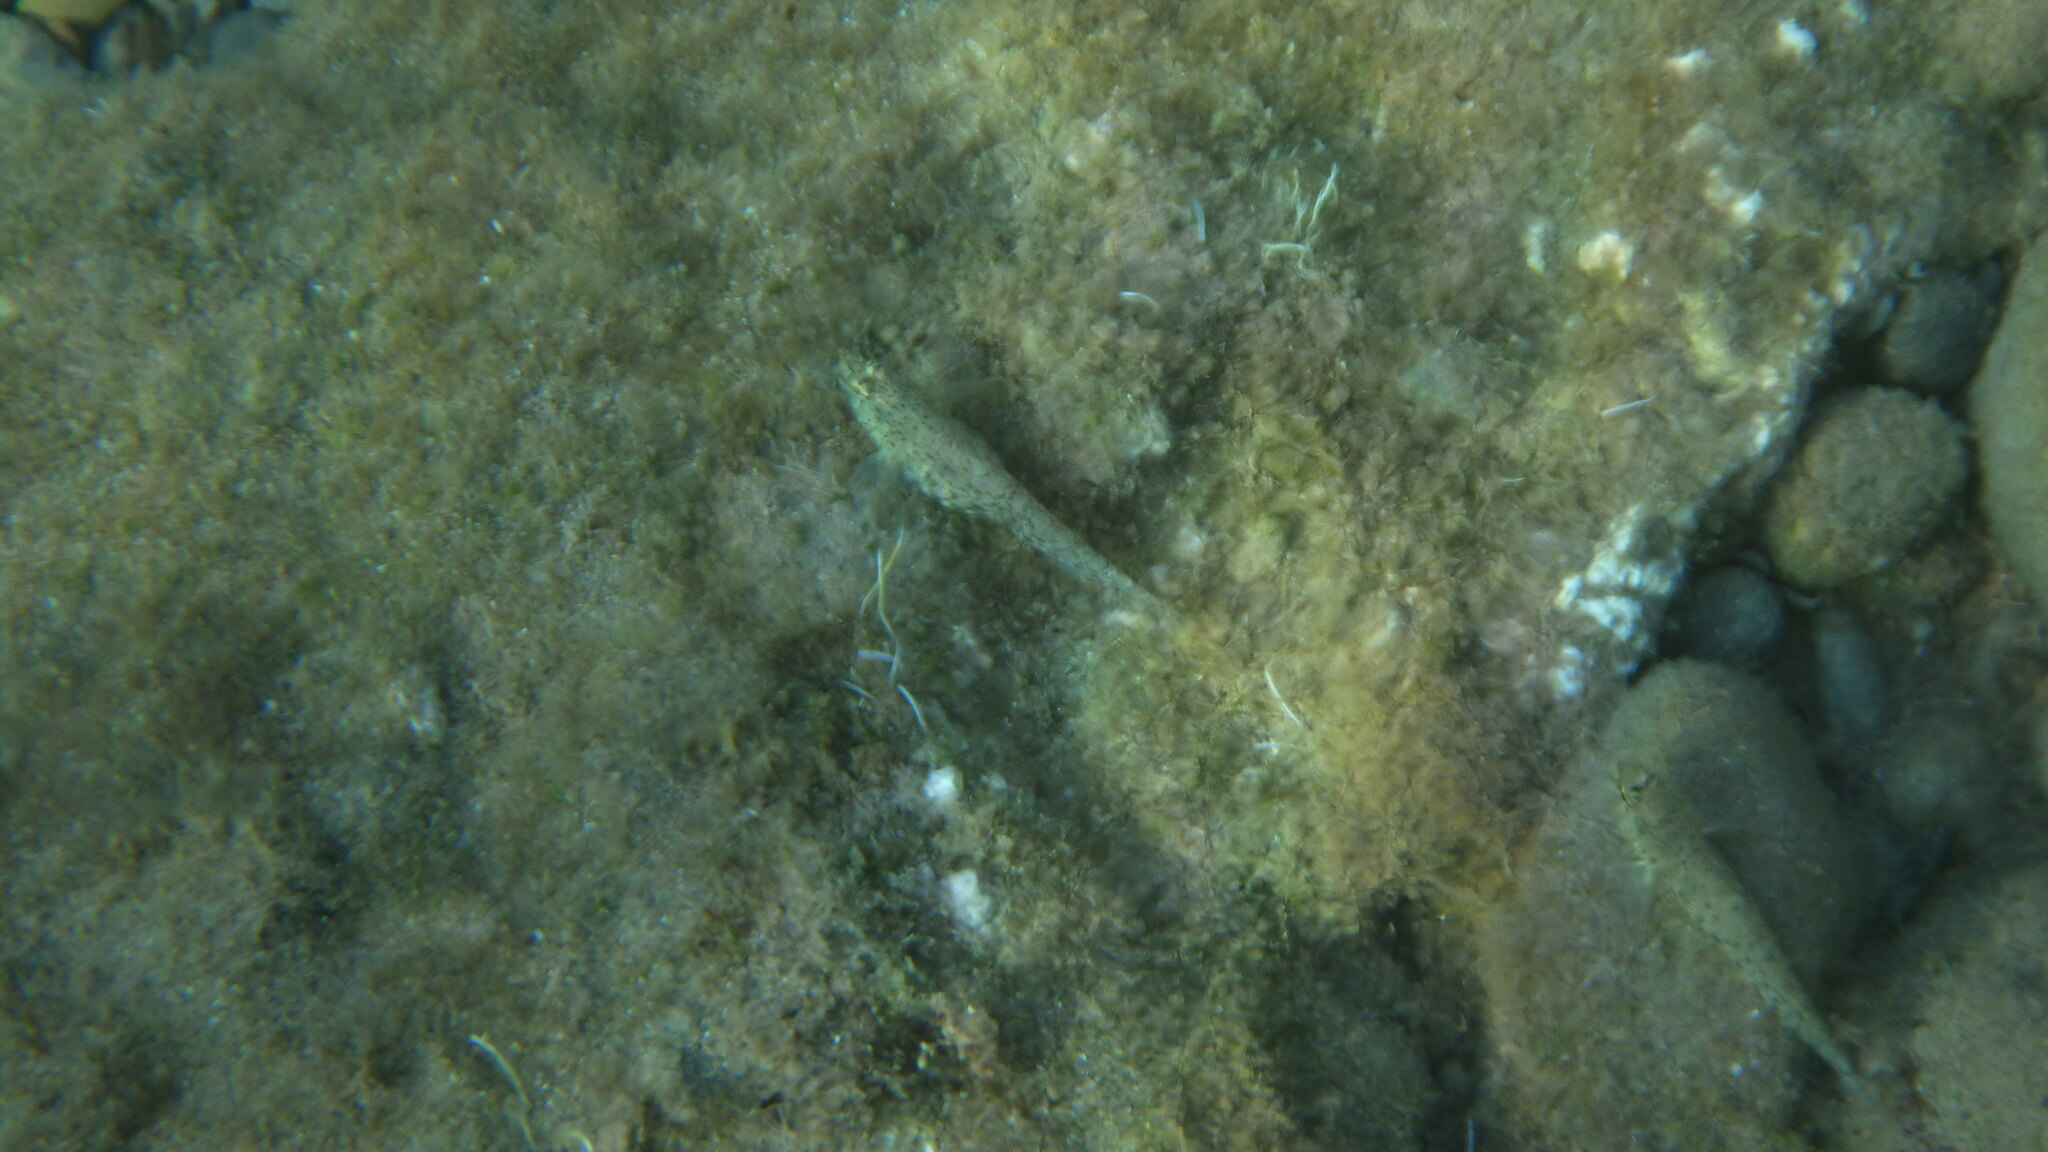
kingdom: Animalia
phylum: Chordata
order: Perciformes
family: Gobiidae
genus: Gobius
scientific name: Gobius incognitus
